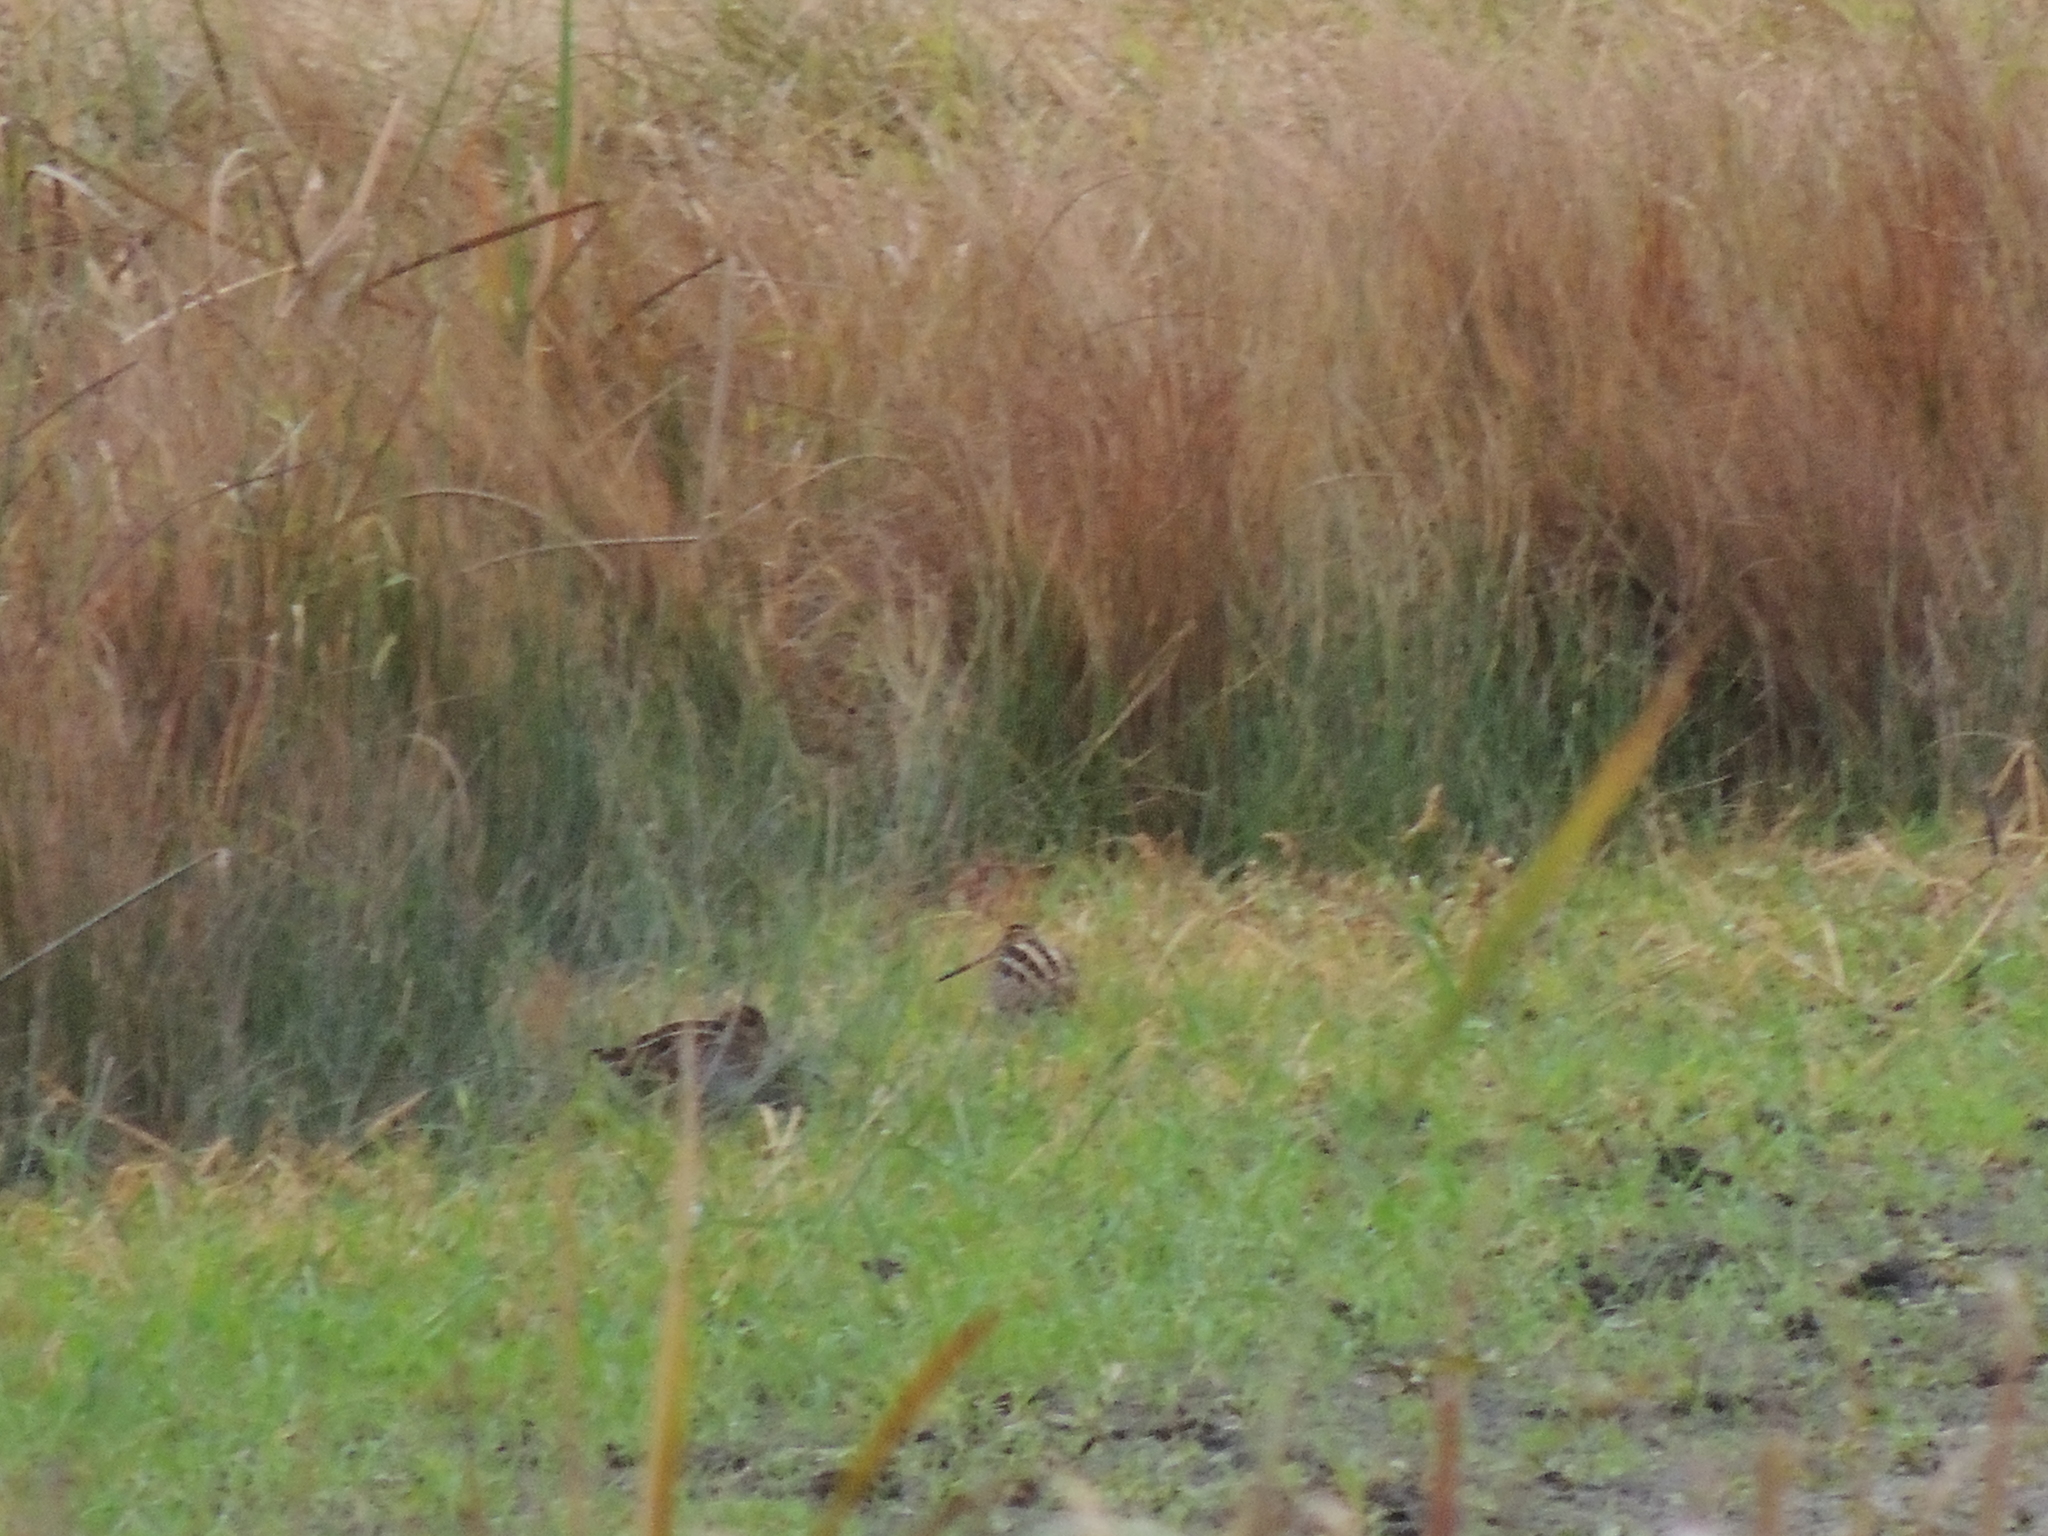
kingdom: Animalia
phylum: Chordata
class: Aves
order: Charadriiformes
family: Scolopacidae
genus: Gallinago
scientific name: Gallinago delicata
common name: Wilson's snipe
